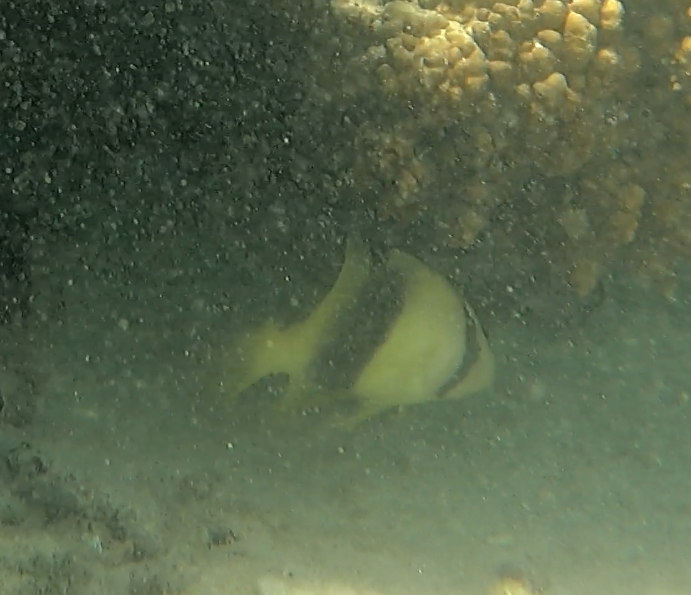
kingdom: Animalia
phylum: Chordata
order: Perciformes
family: Serranidae
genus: Diploprion
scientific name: Diploprion bifasciatum
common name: Barred soapfish
